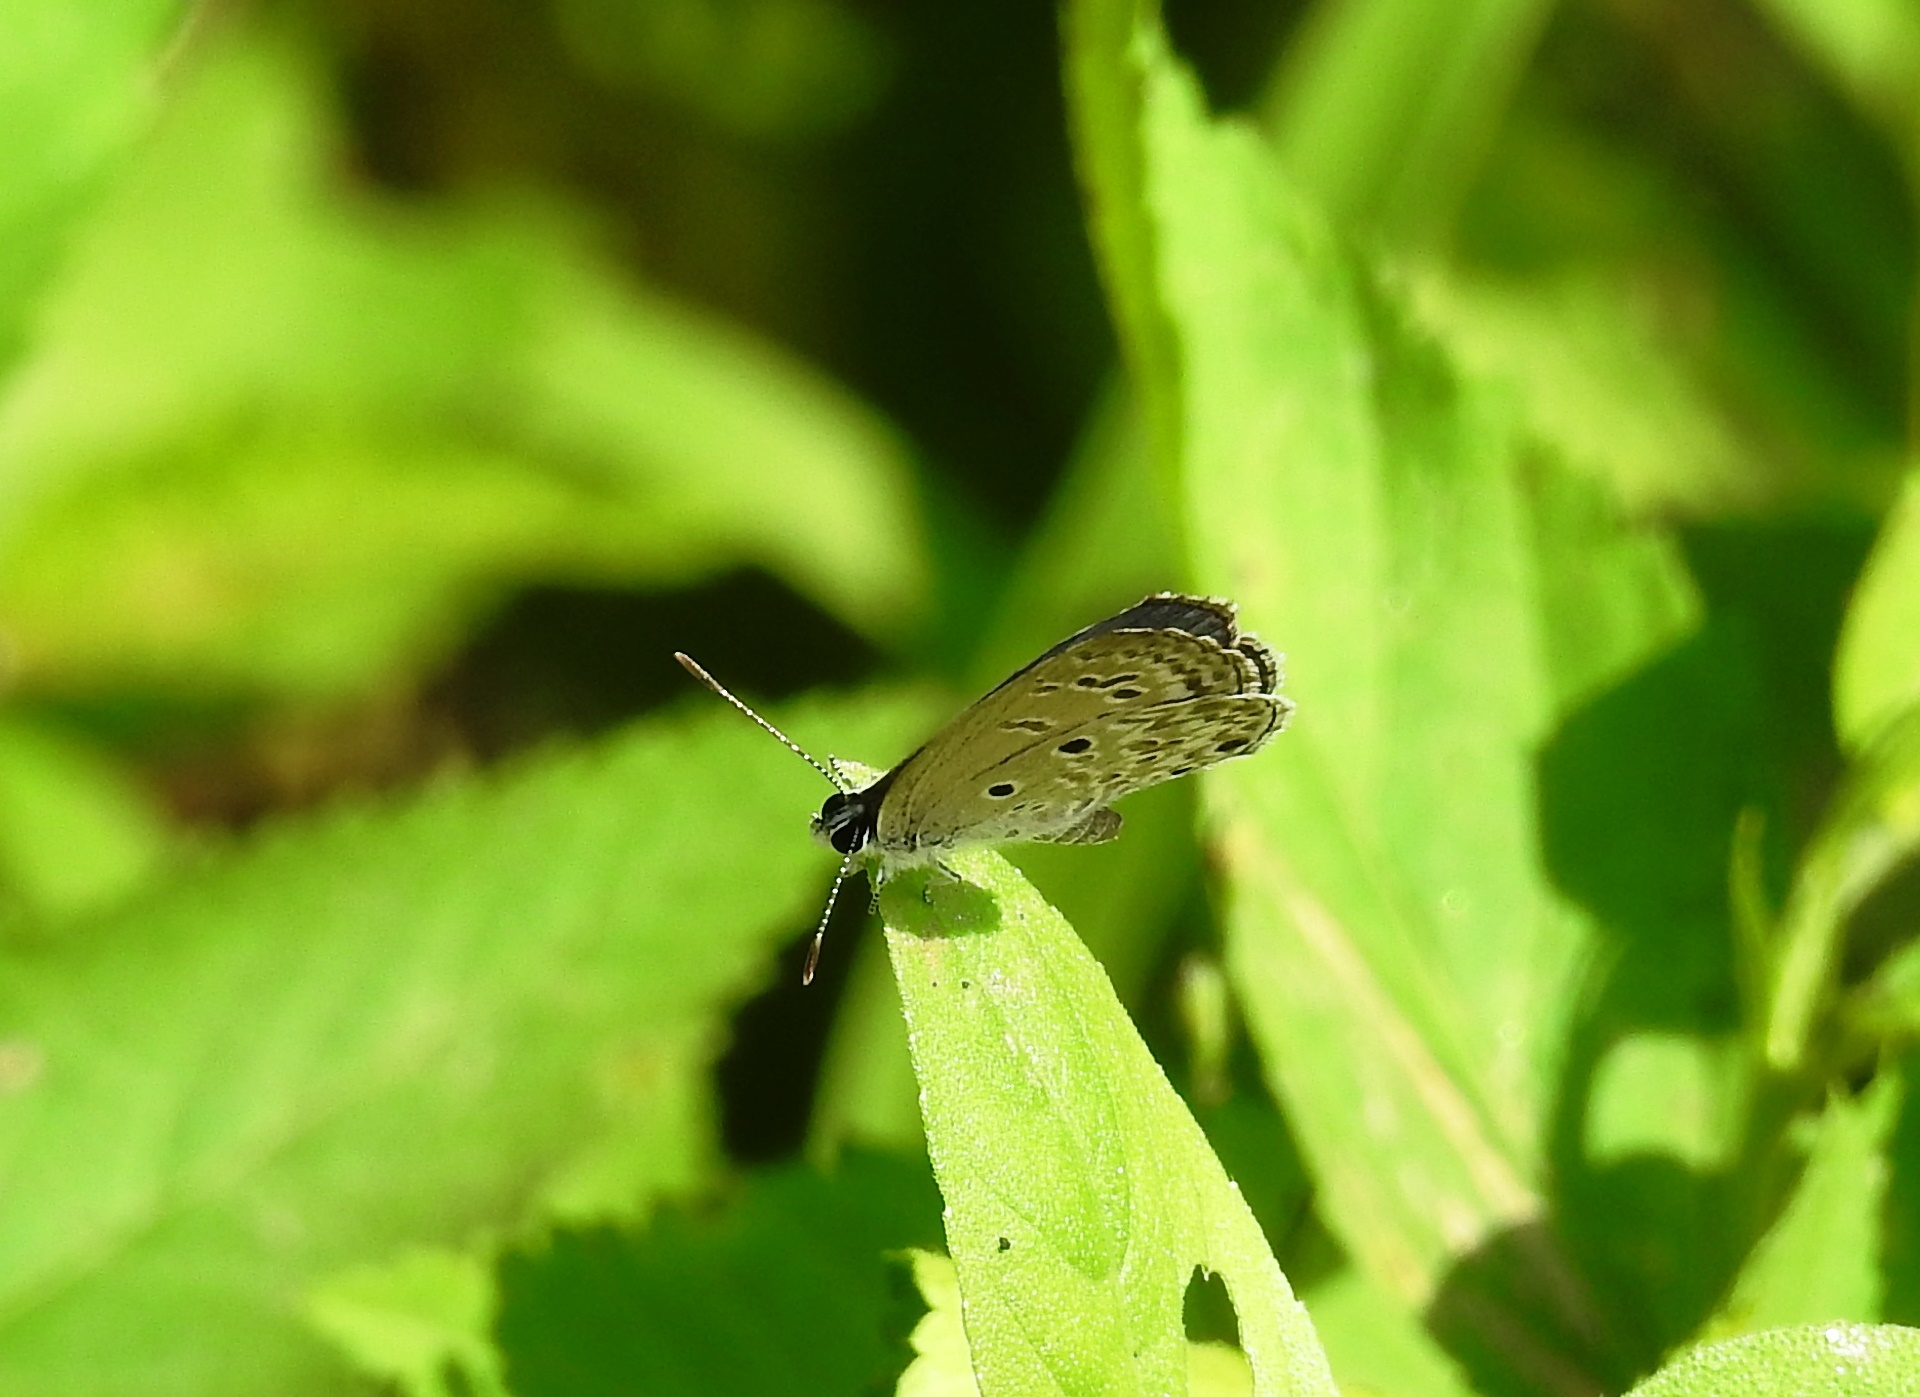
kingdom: Animalia
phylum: Arthropoda
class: Insecta
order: Lepidoptera
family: Lycaenidae
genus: Chilades
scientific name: Chilades laius
